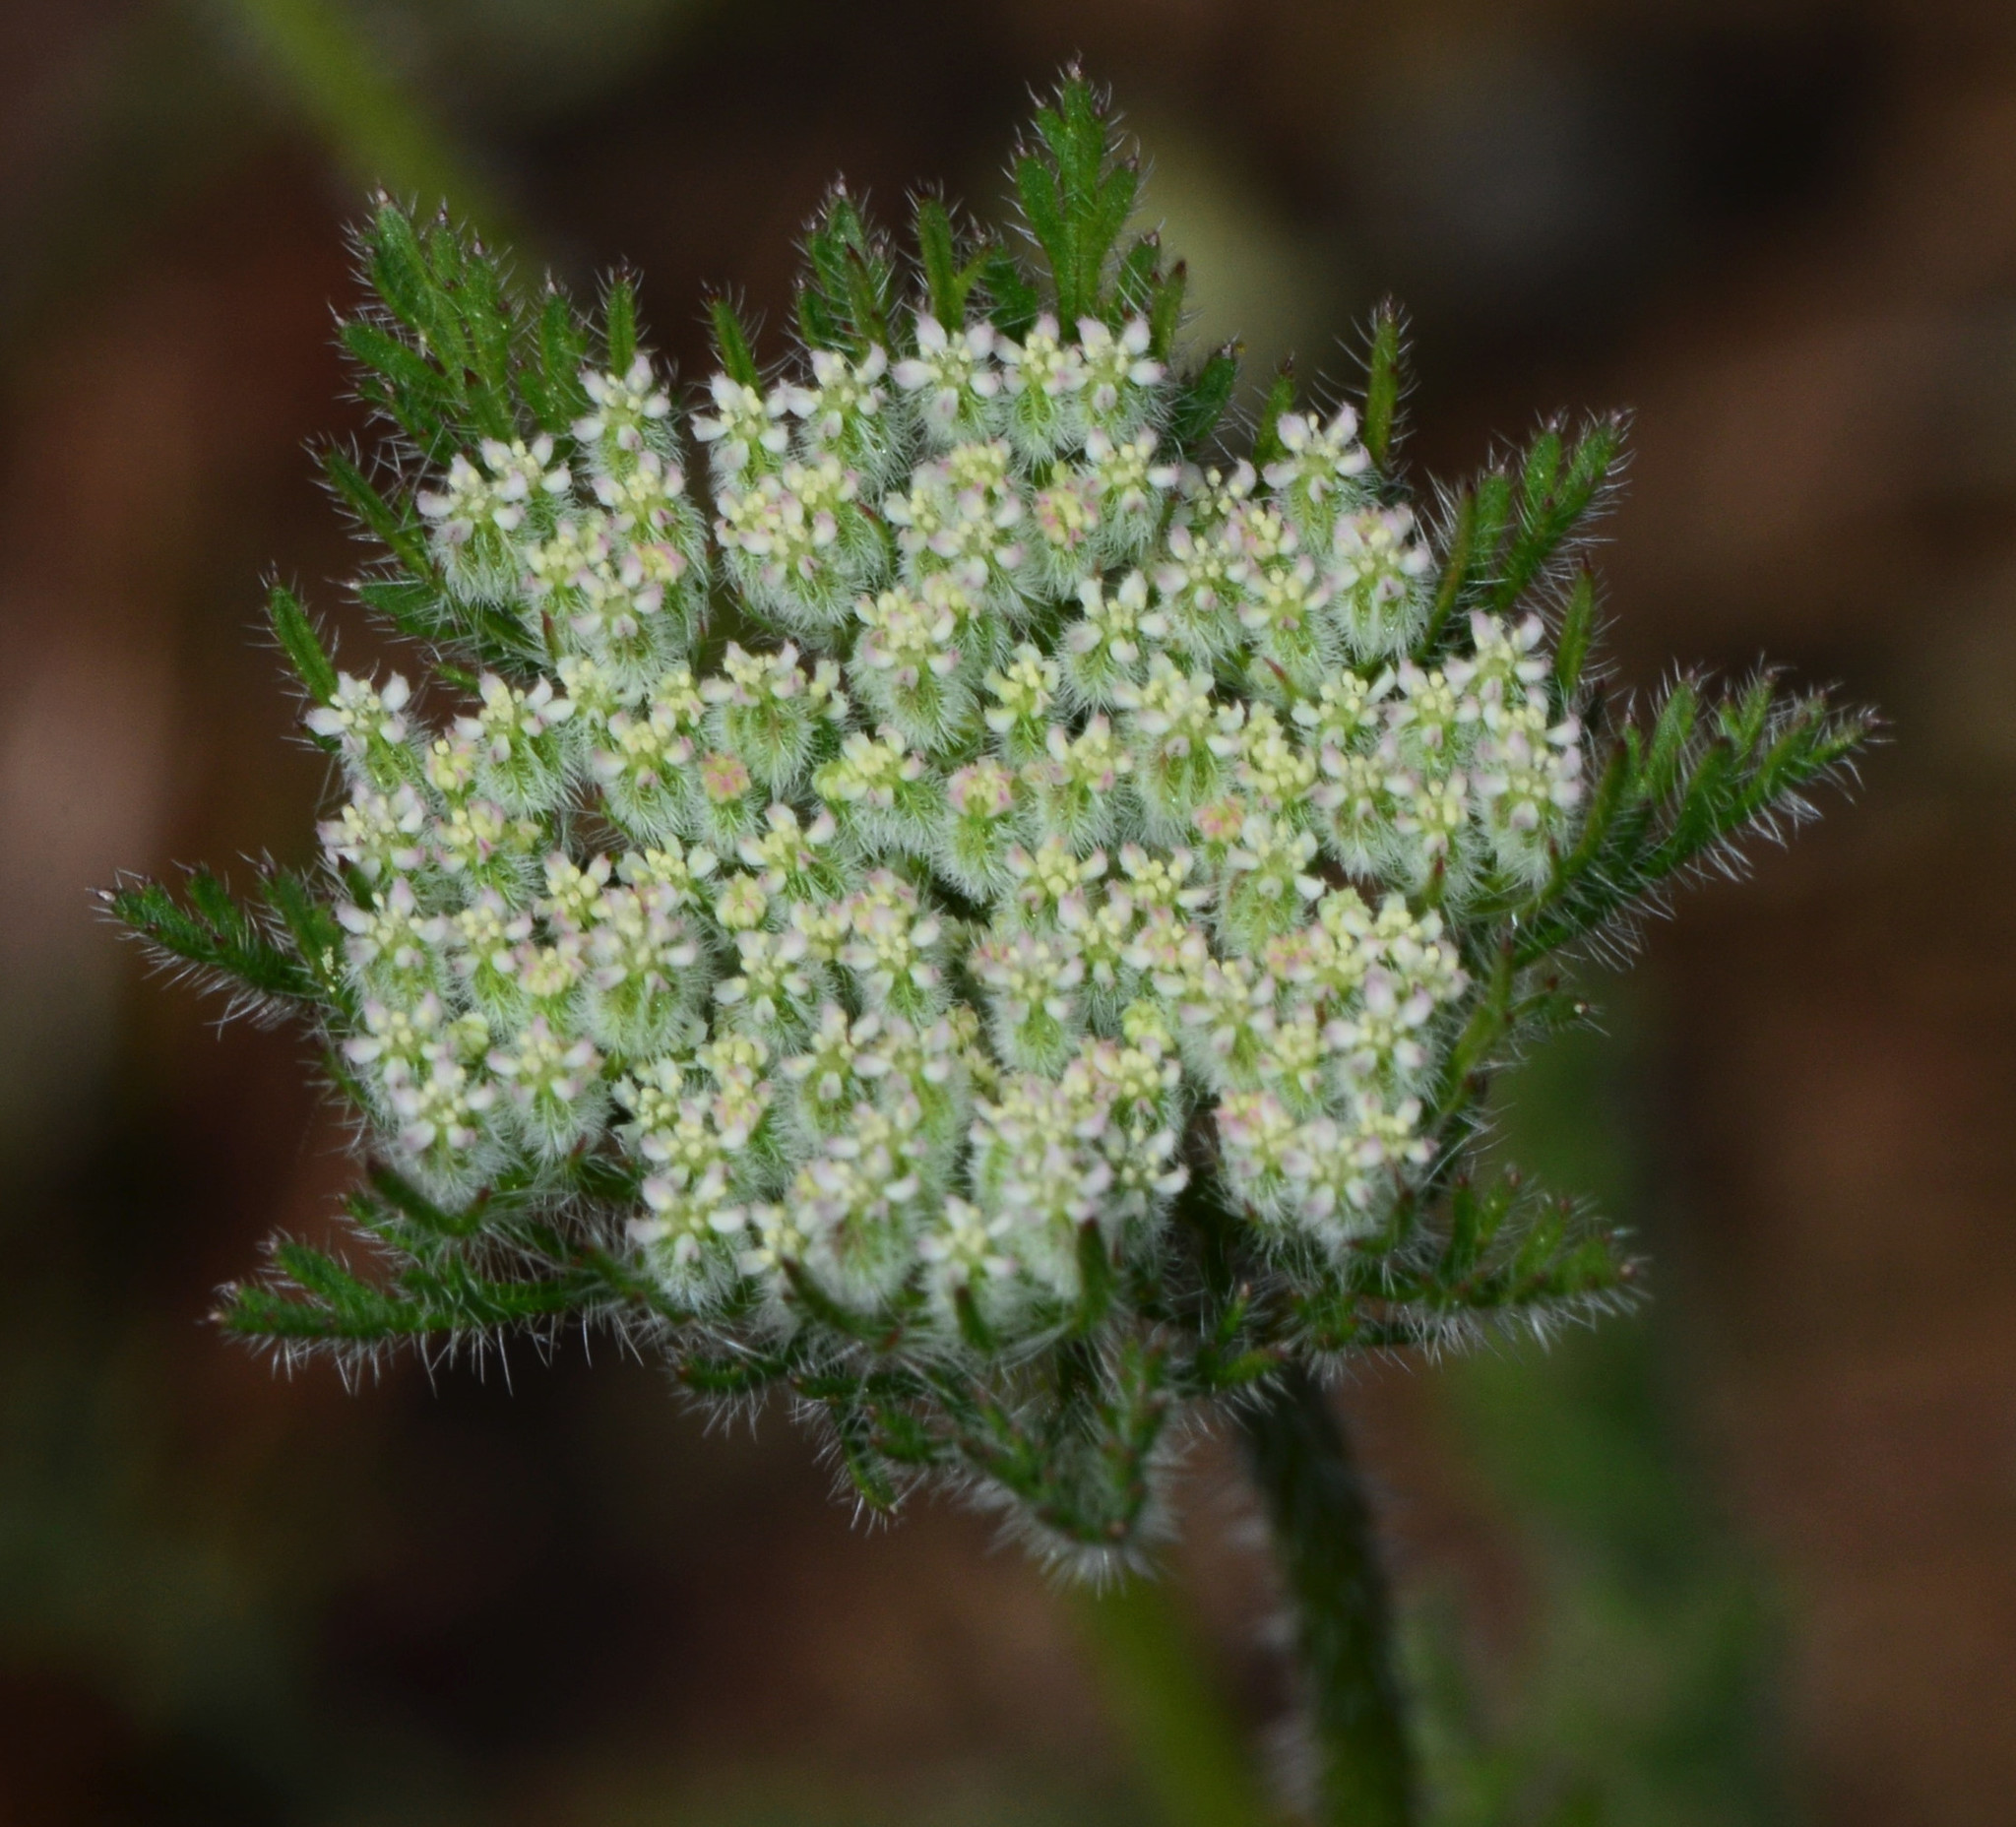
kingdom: Plantae
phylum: Tracheophyta
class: Magnoliopsida
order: Apiales
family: Apiaceae
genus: Daucus
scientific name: Daucus pusillus
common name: Southwest wild carrot
